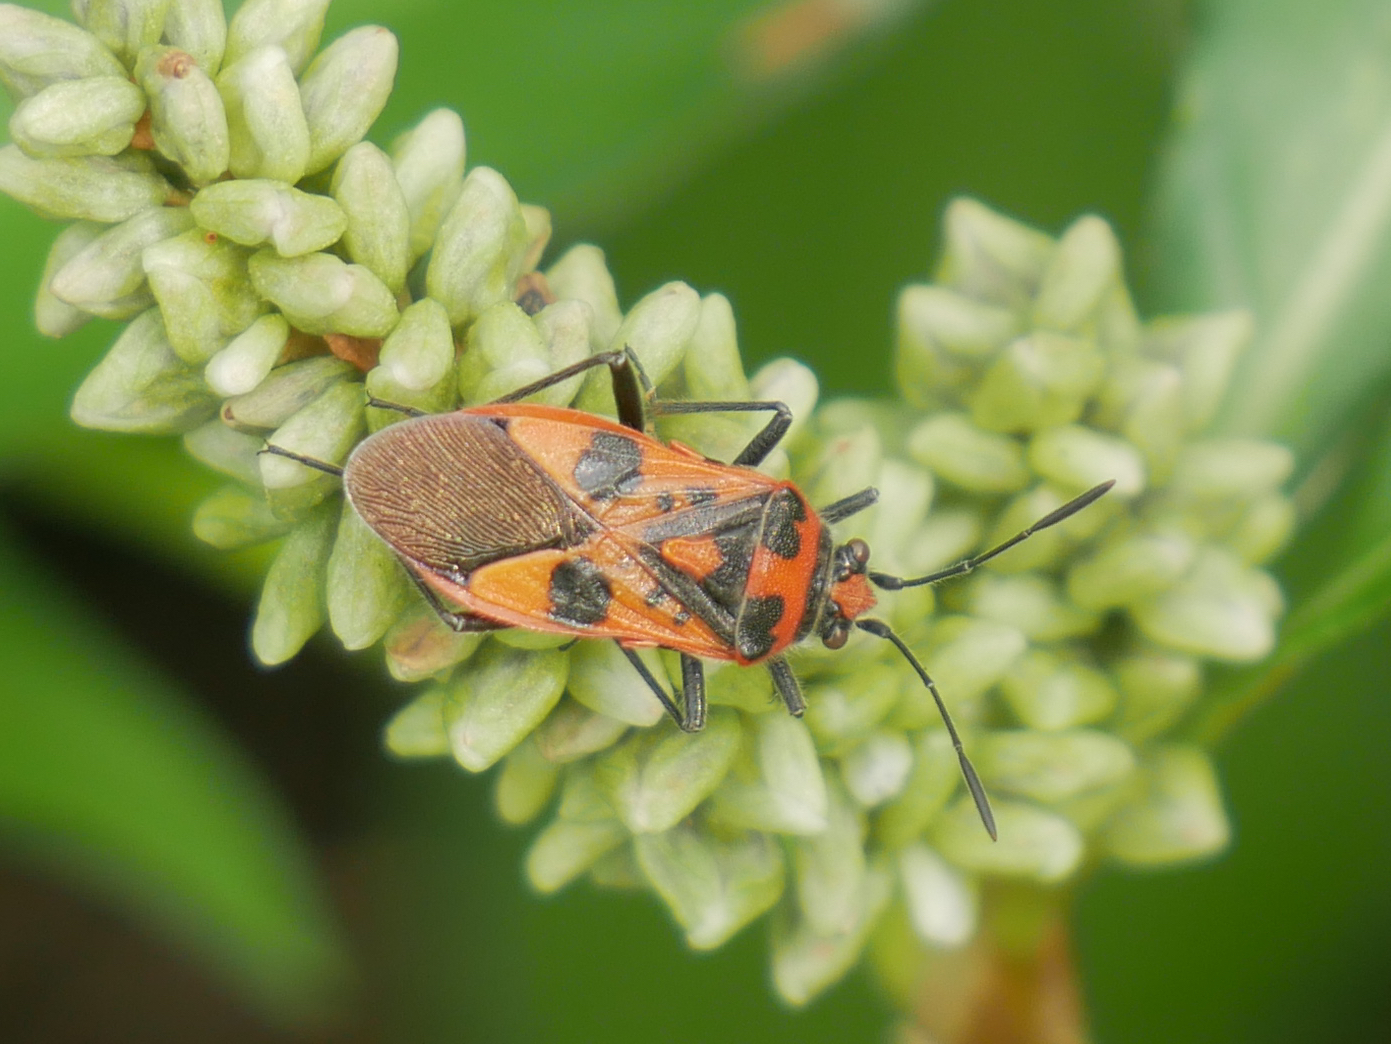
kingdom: Animalia
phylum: Arthropoda
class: Insecta
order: Hemiptera
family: Rhopalidae
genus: Corizus
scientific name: Corizus hyoscyami
